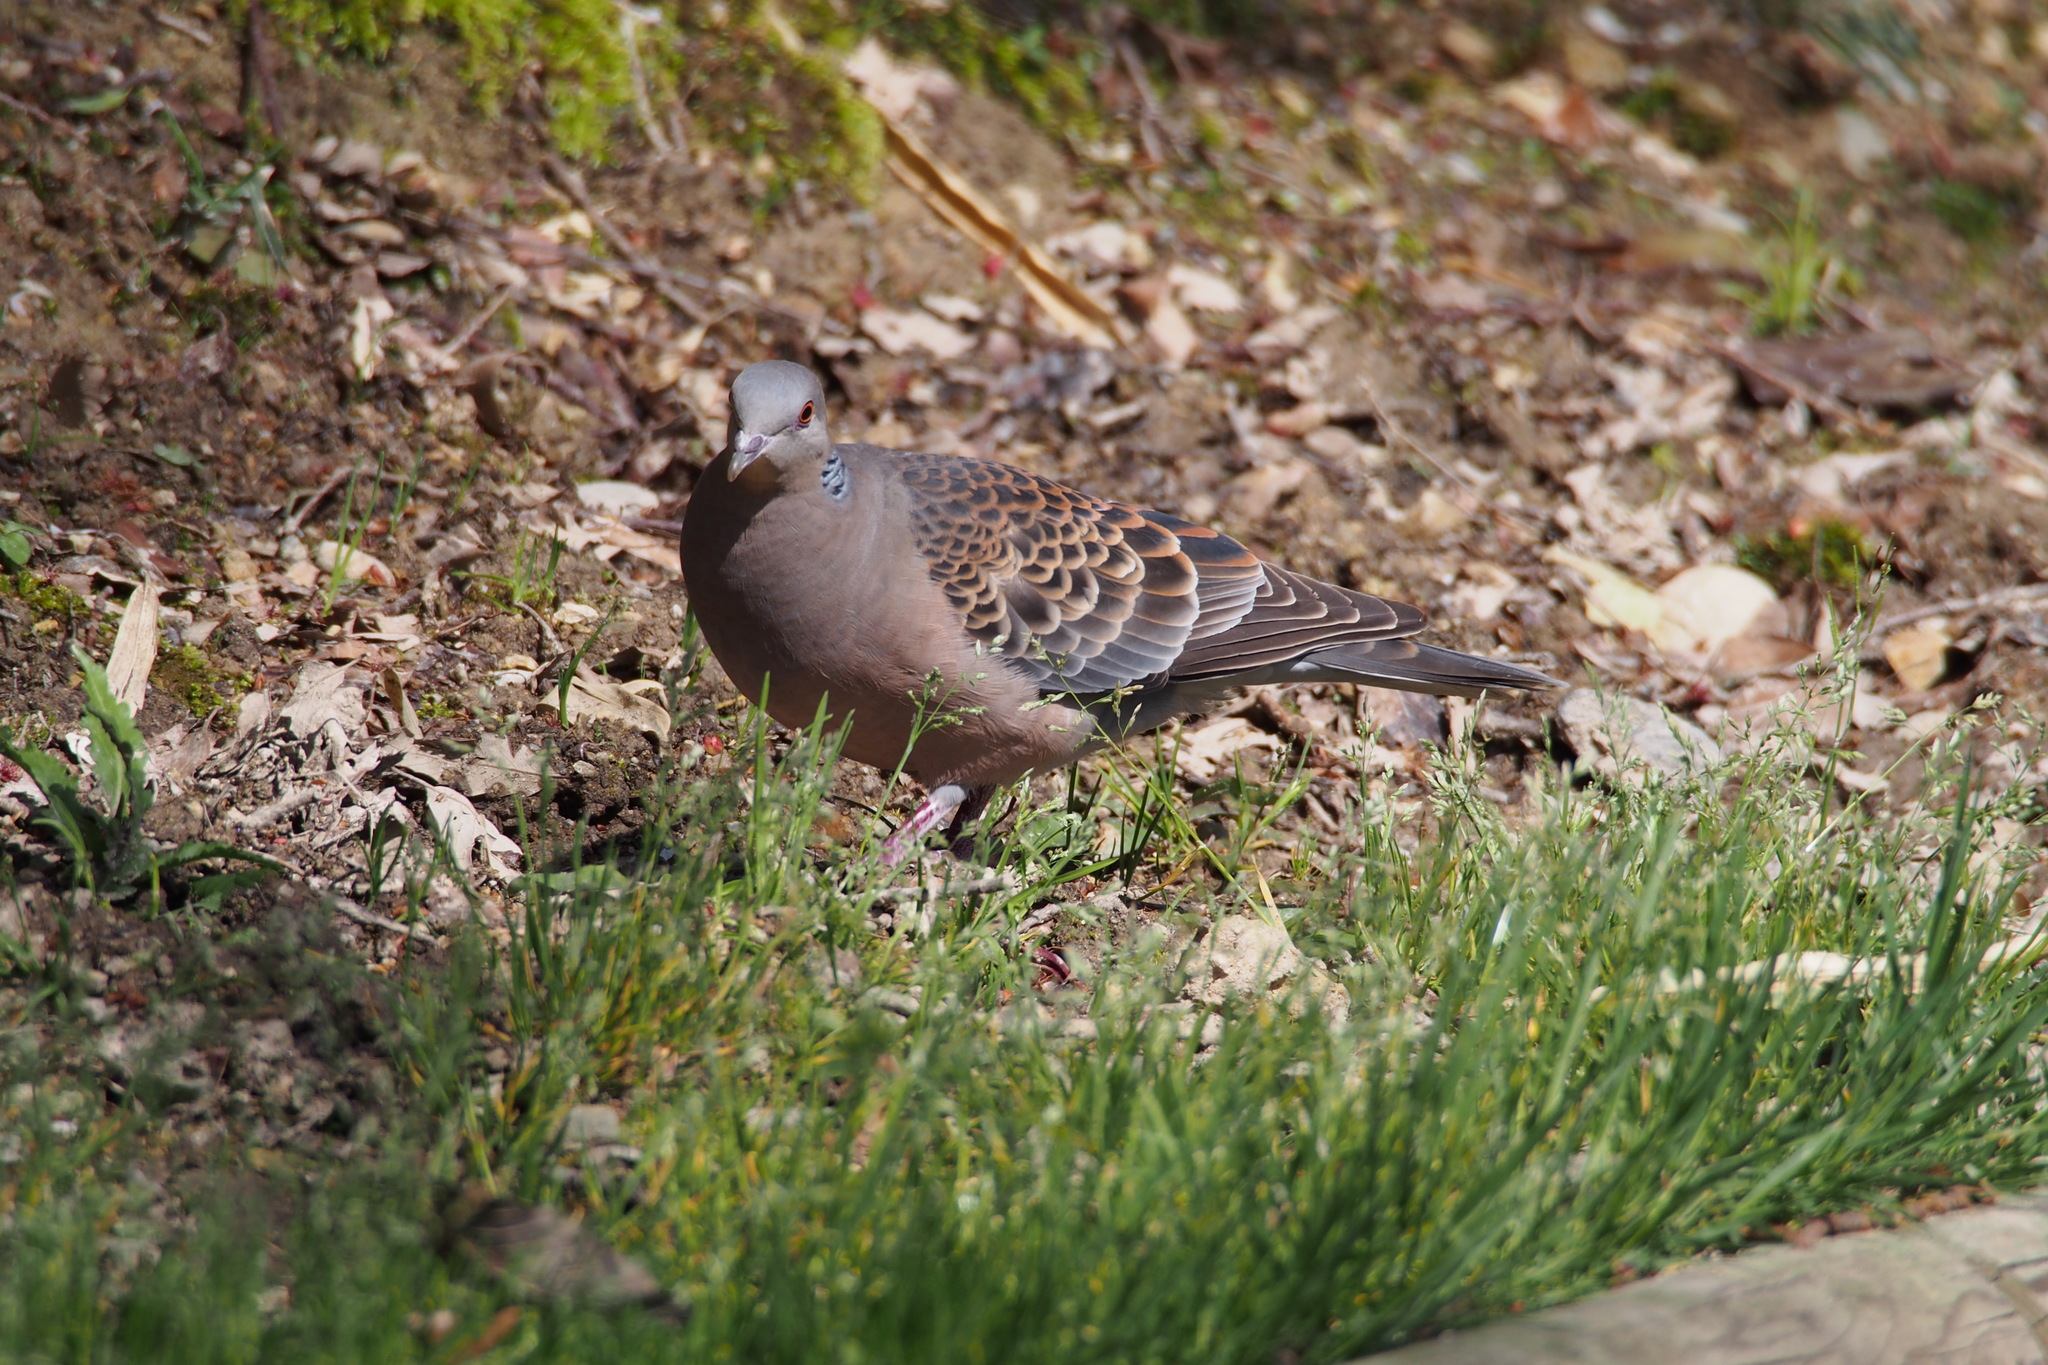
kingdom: Animalia
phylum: Chordata
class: Aves
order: Columbiformes
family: Columbidae
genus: Streptopelia
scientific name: Streptopelia orientalis
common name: Oriental turtle dove
